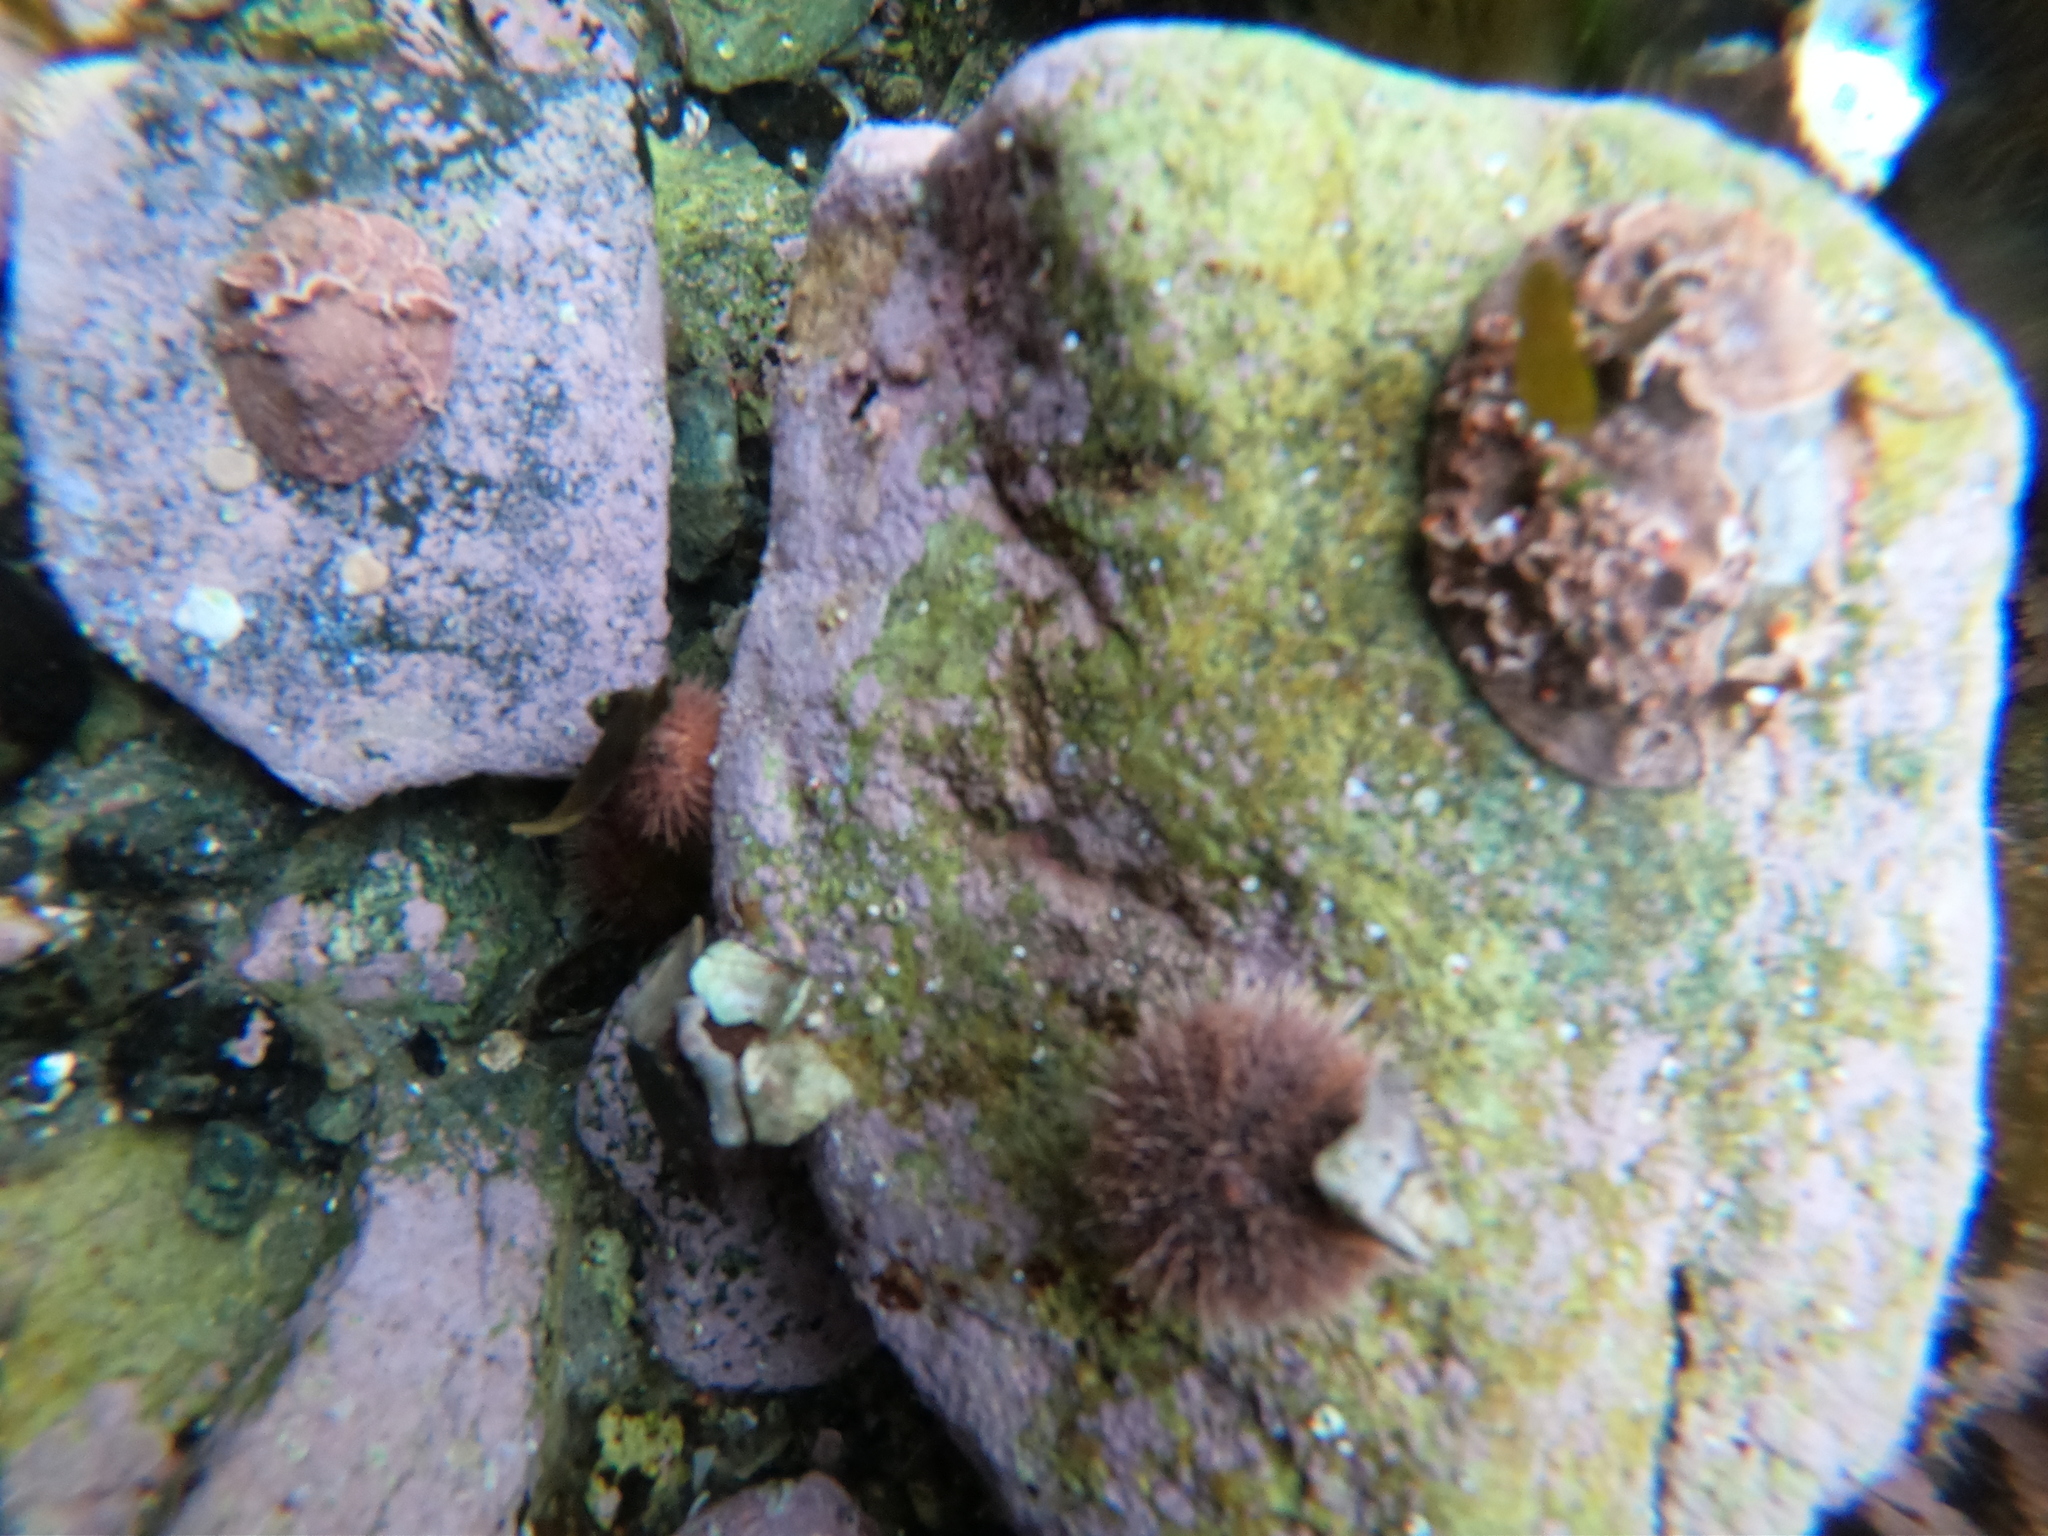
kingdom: Animalia
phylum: Echinodermata
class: Echinoidea
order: Camarodonta
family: Temnopleuridae
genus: Pseudechinus
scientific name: Pseudechinus magellanicus
